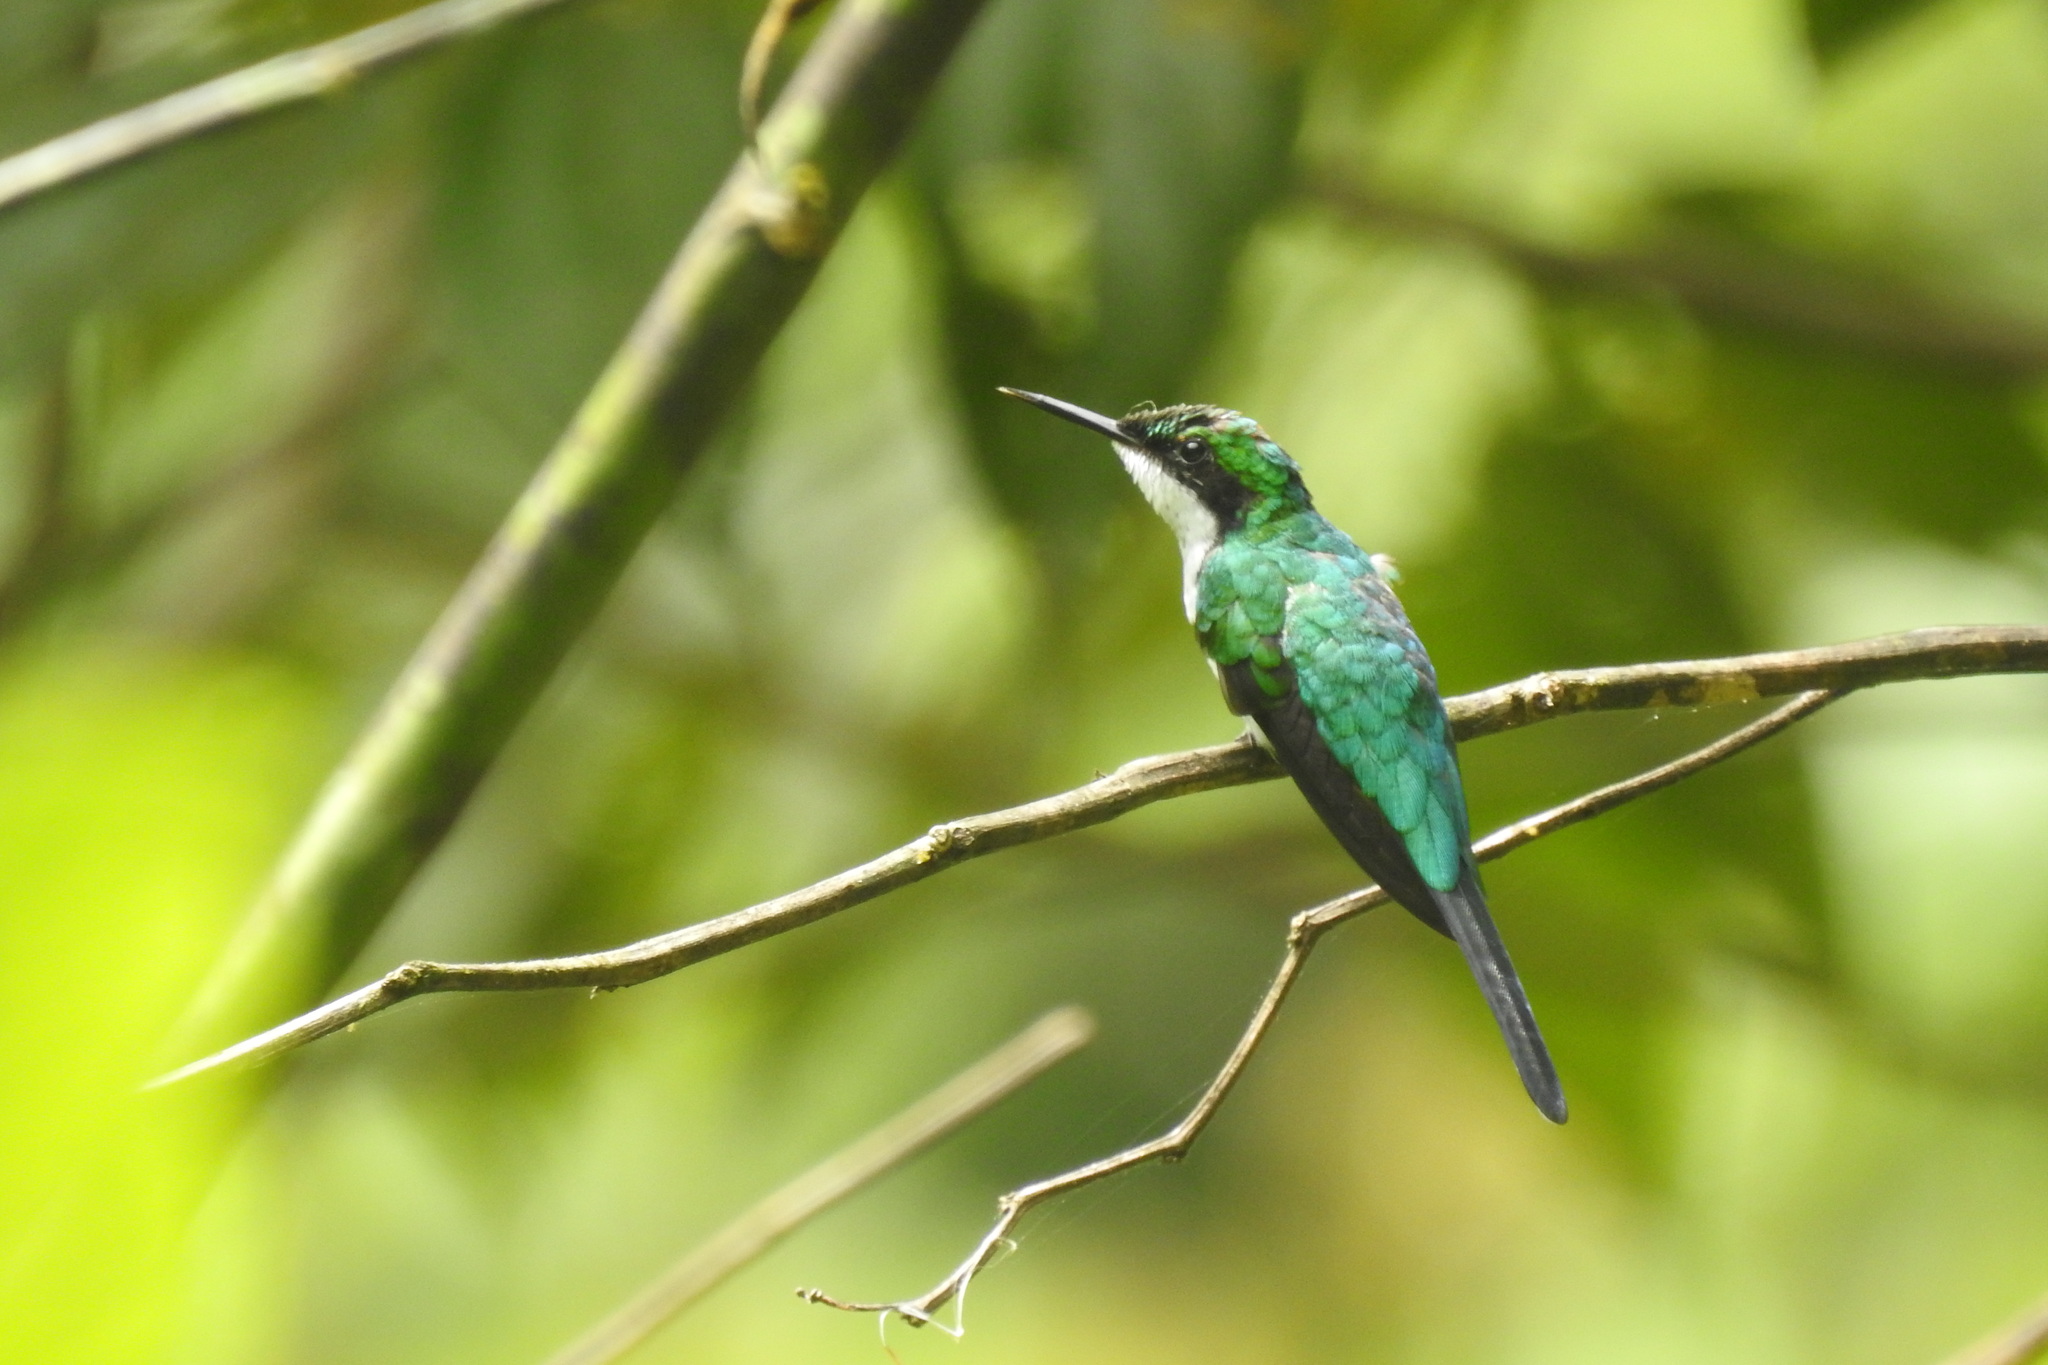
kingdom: Animalia
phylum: Chordata
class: Aves
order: Apodiformes
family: Trochilidae
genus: Heliothryx
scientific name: Heliothryx barroti
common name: Purple-crowned fairy
